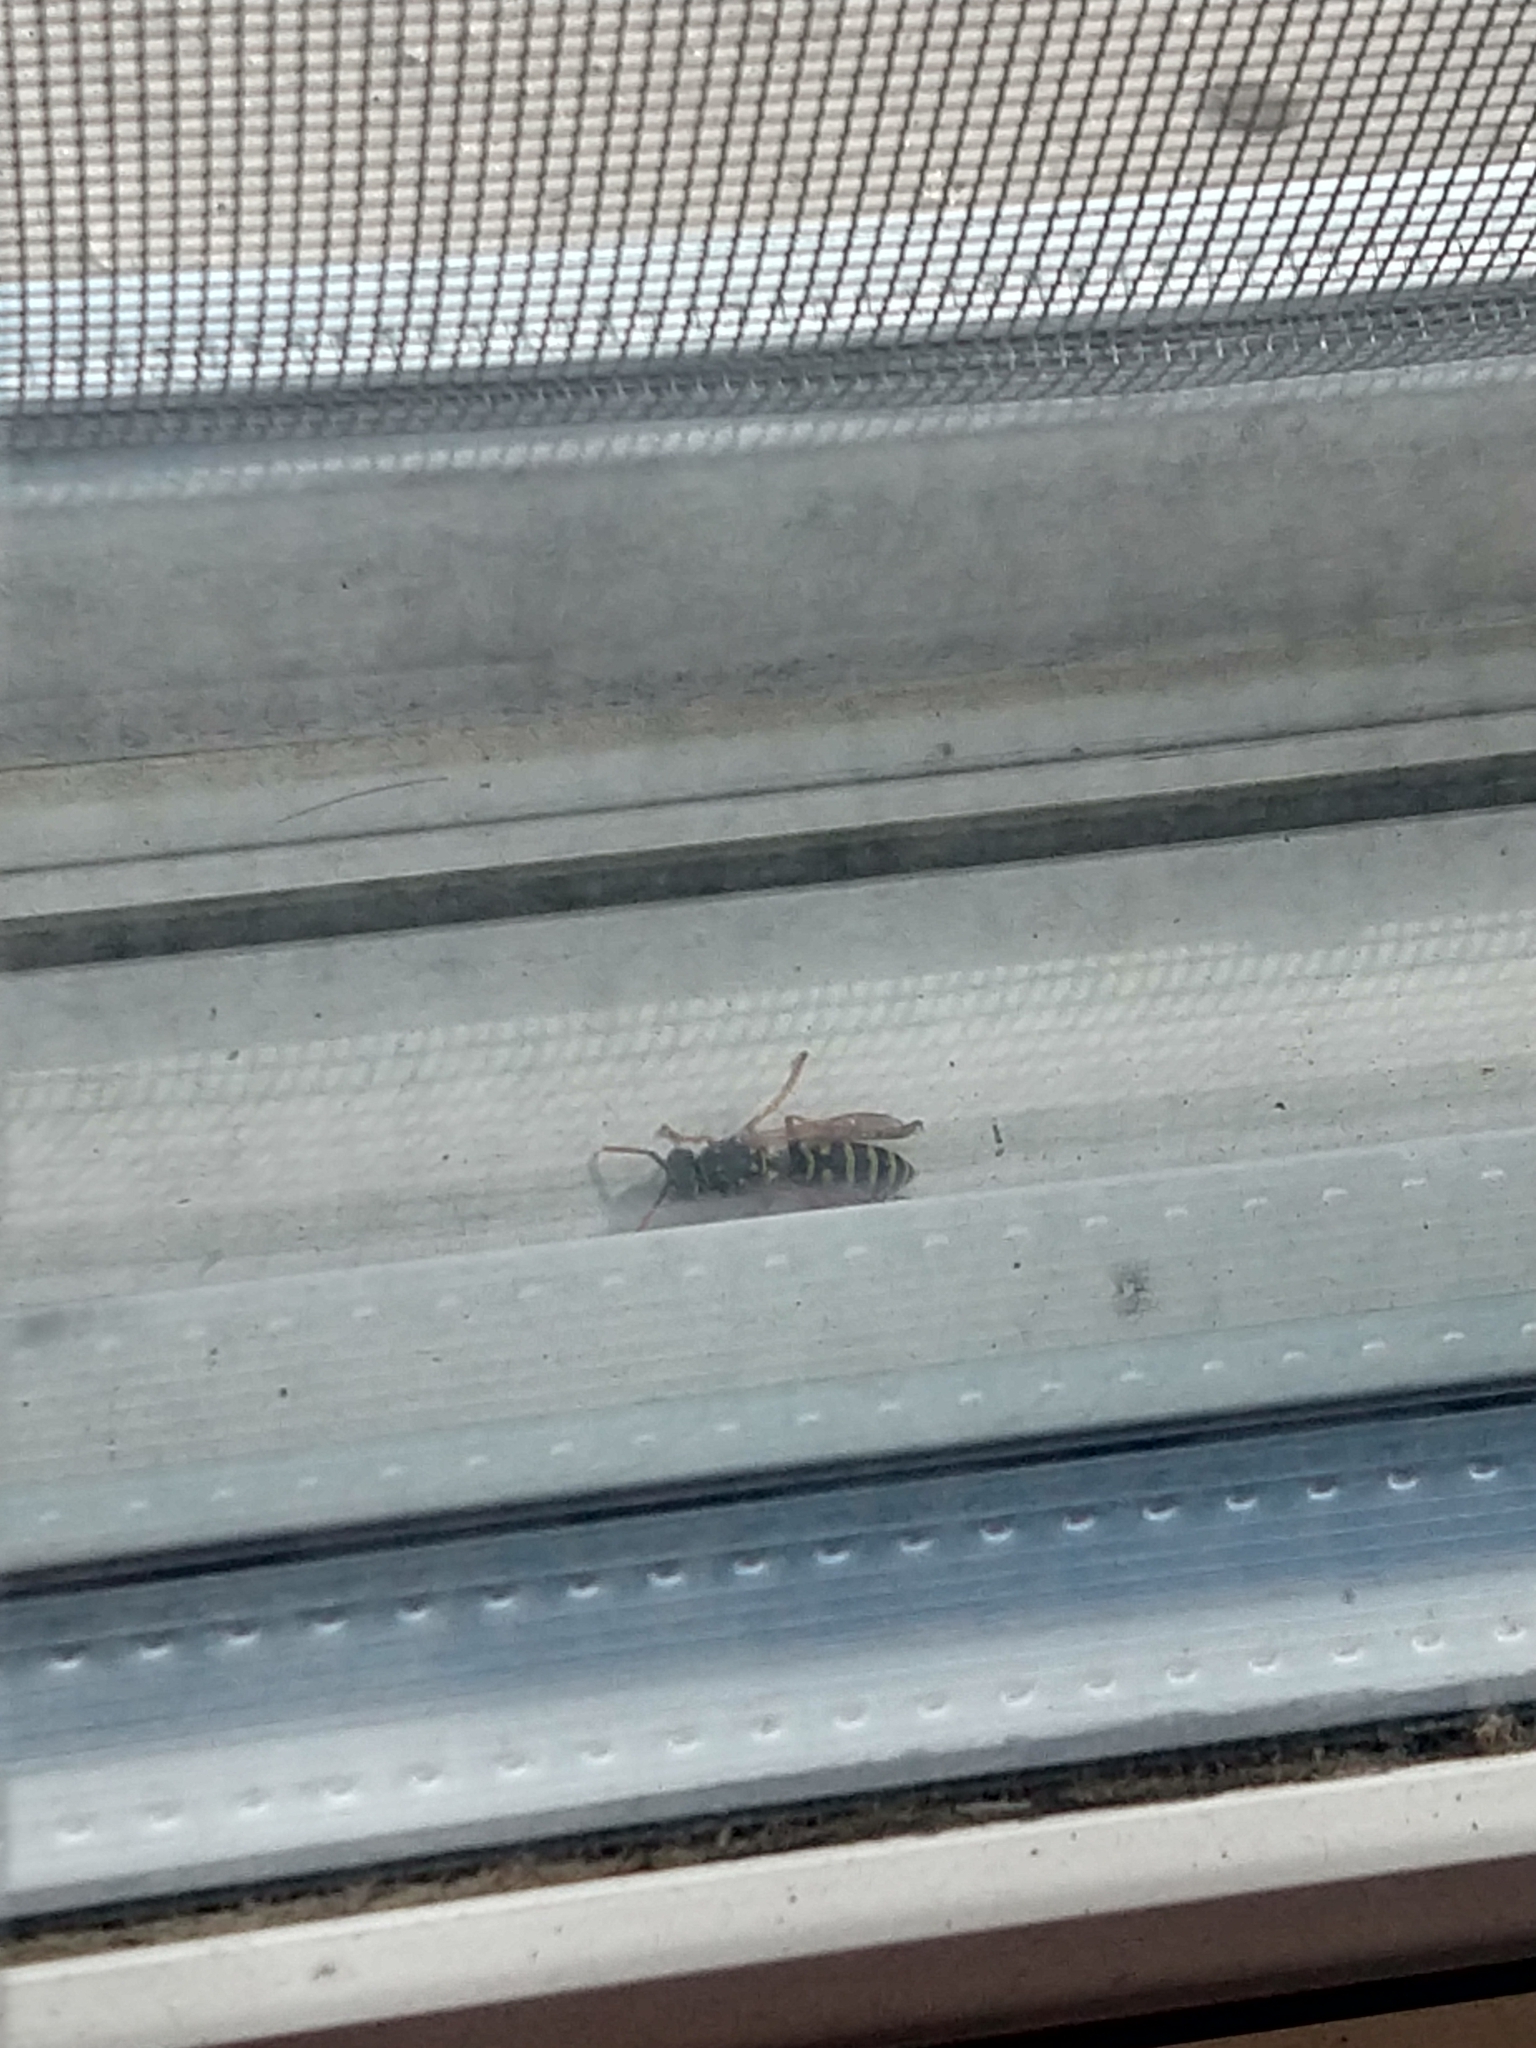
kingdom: Animalia
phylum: Arthropoda
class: Insecta
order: Hymenoptera
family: Eumenidae
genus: Polistes
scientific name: Polistes dominula
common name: Paper wasp
